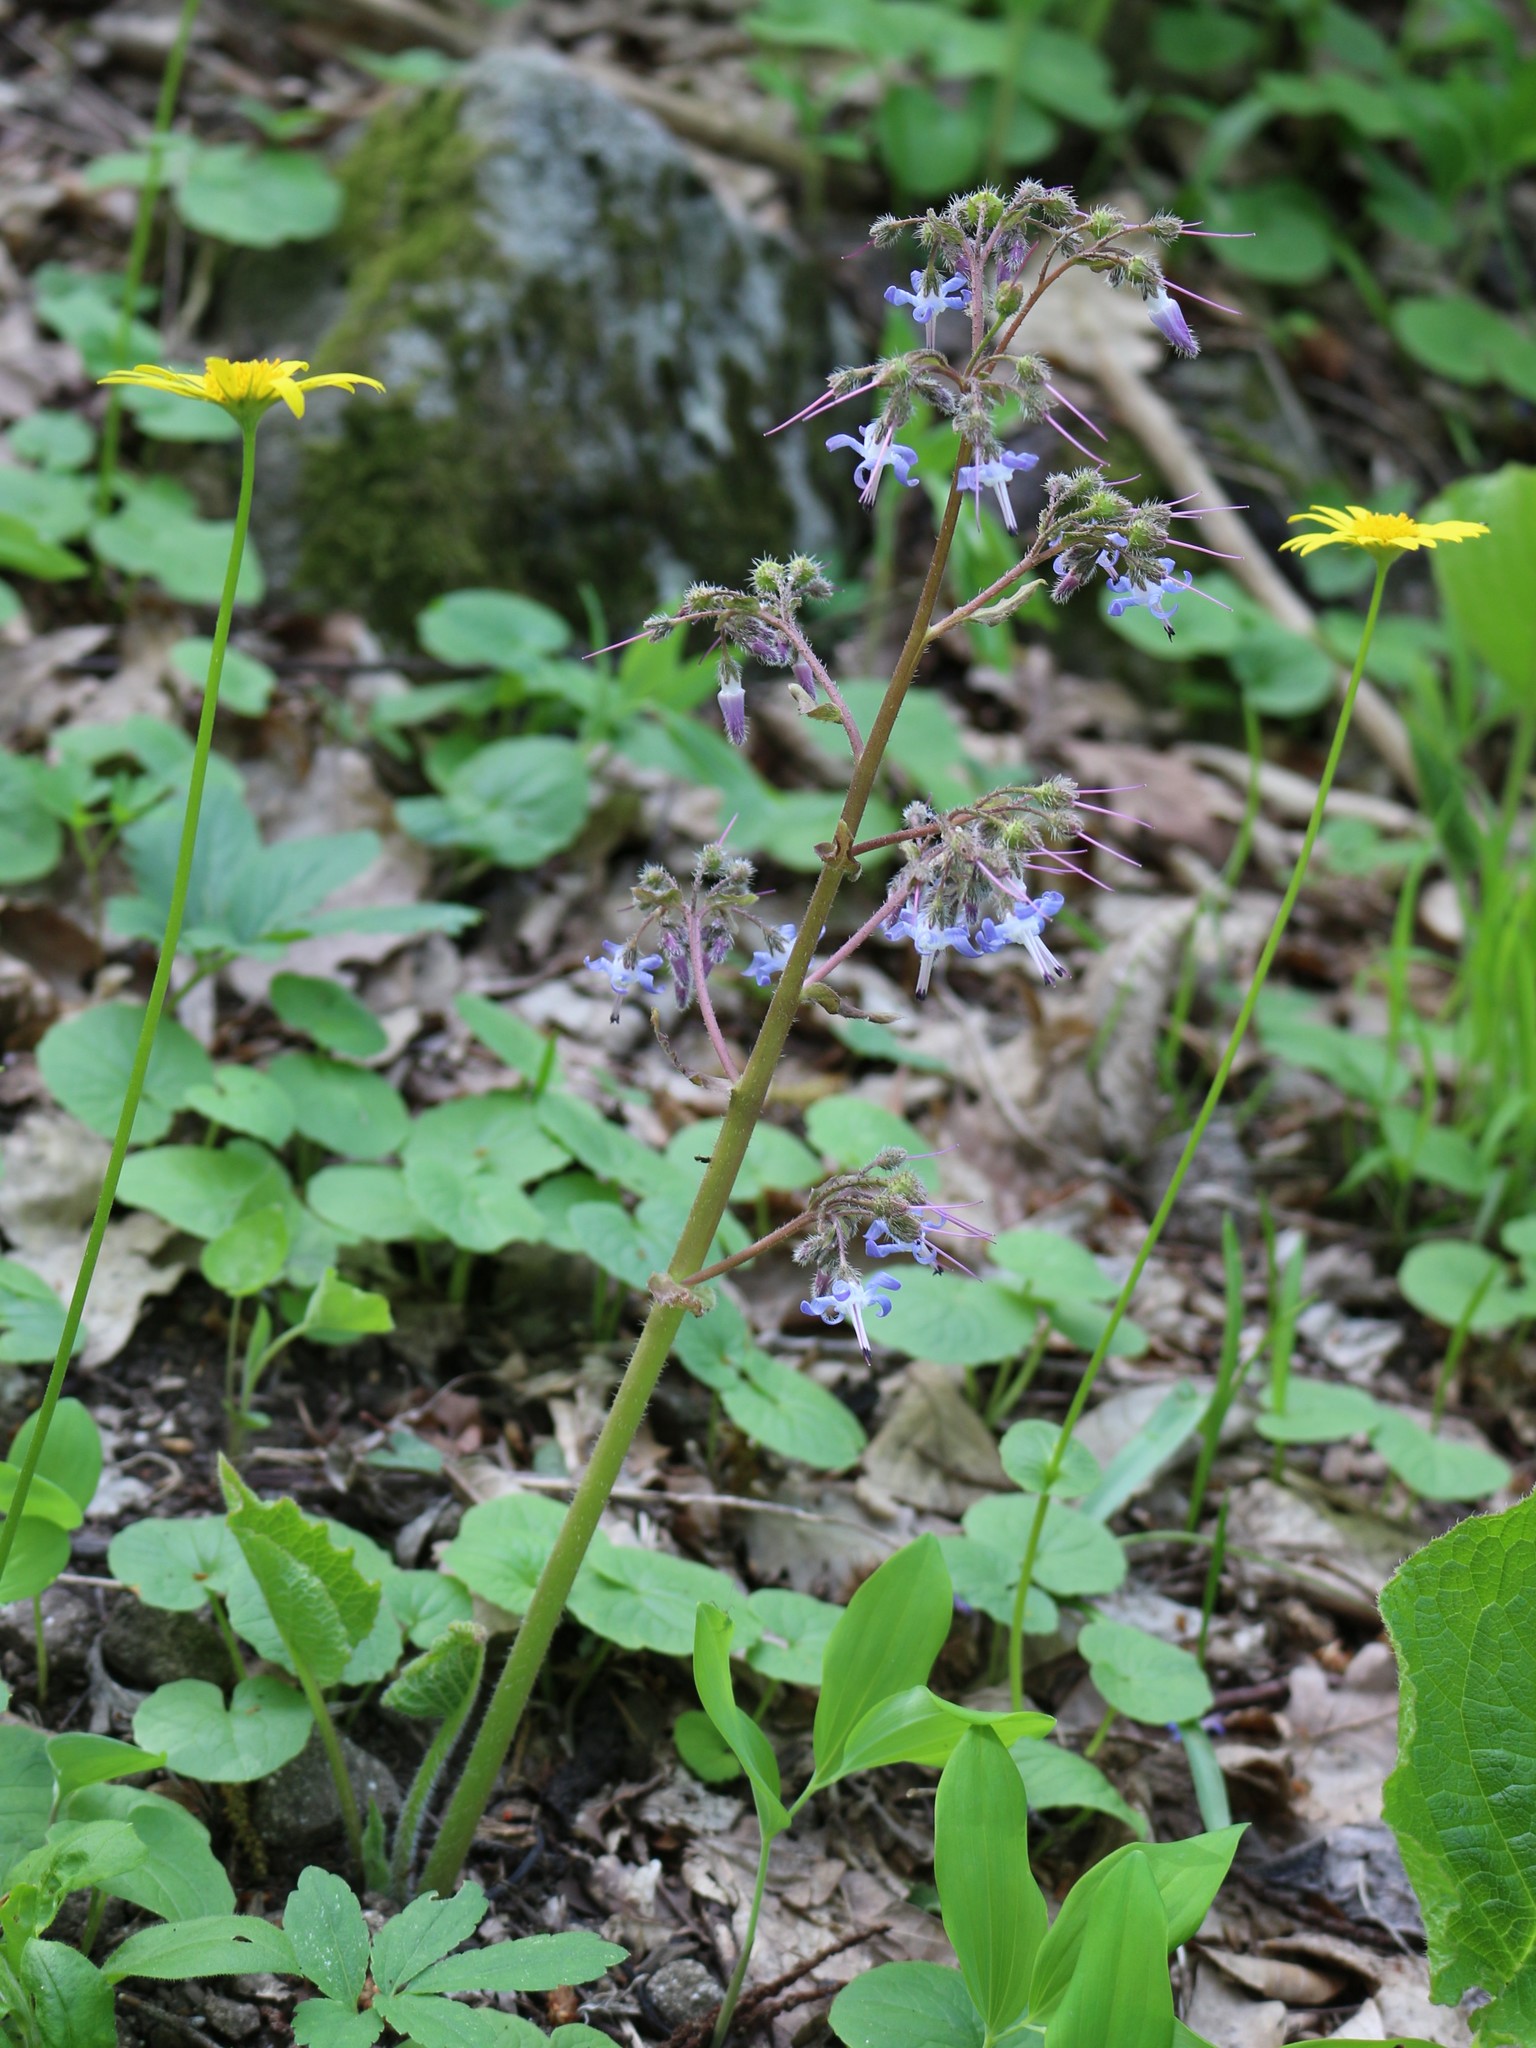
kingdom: Plantae
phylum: Tracheophyta
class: Magnoliopsida
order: Boraginales
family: Boraginaceae
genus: Trachystemon
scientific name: Trachystemon orientale
